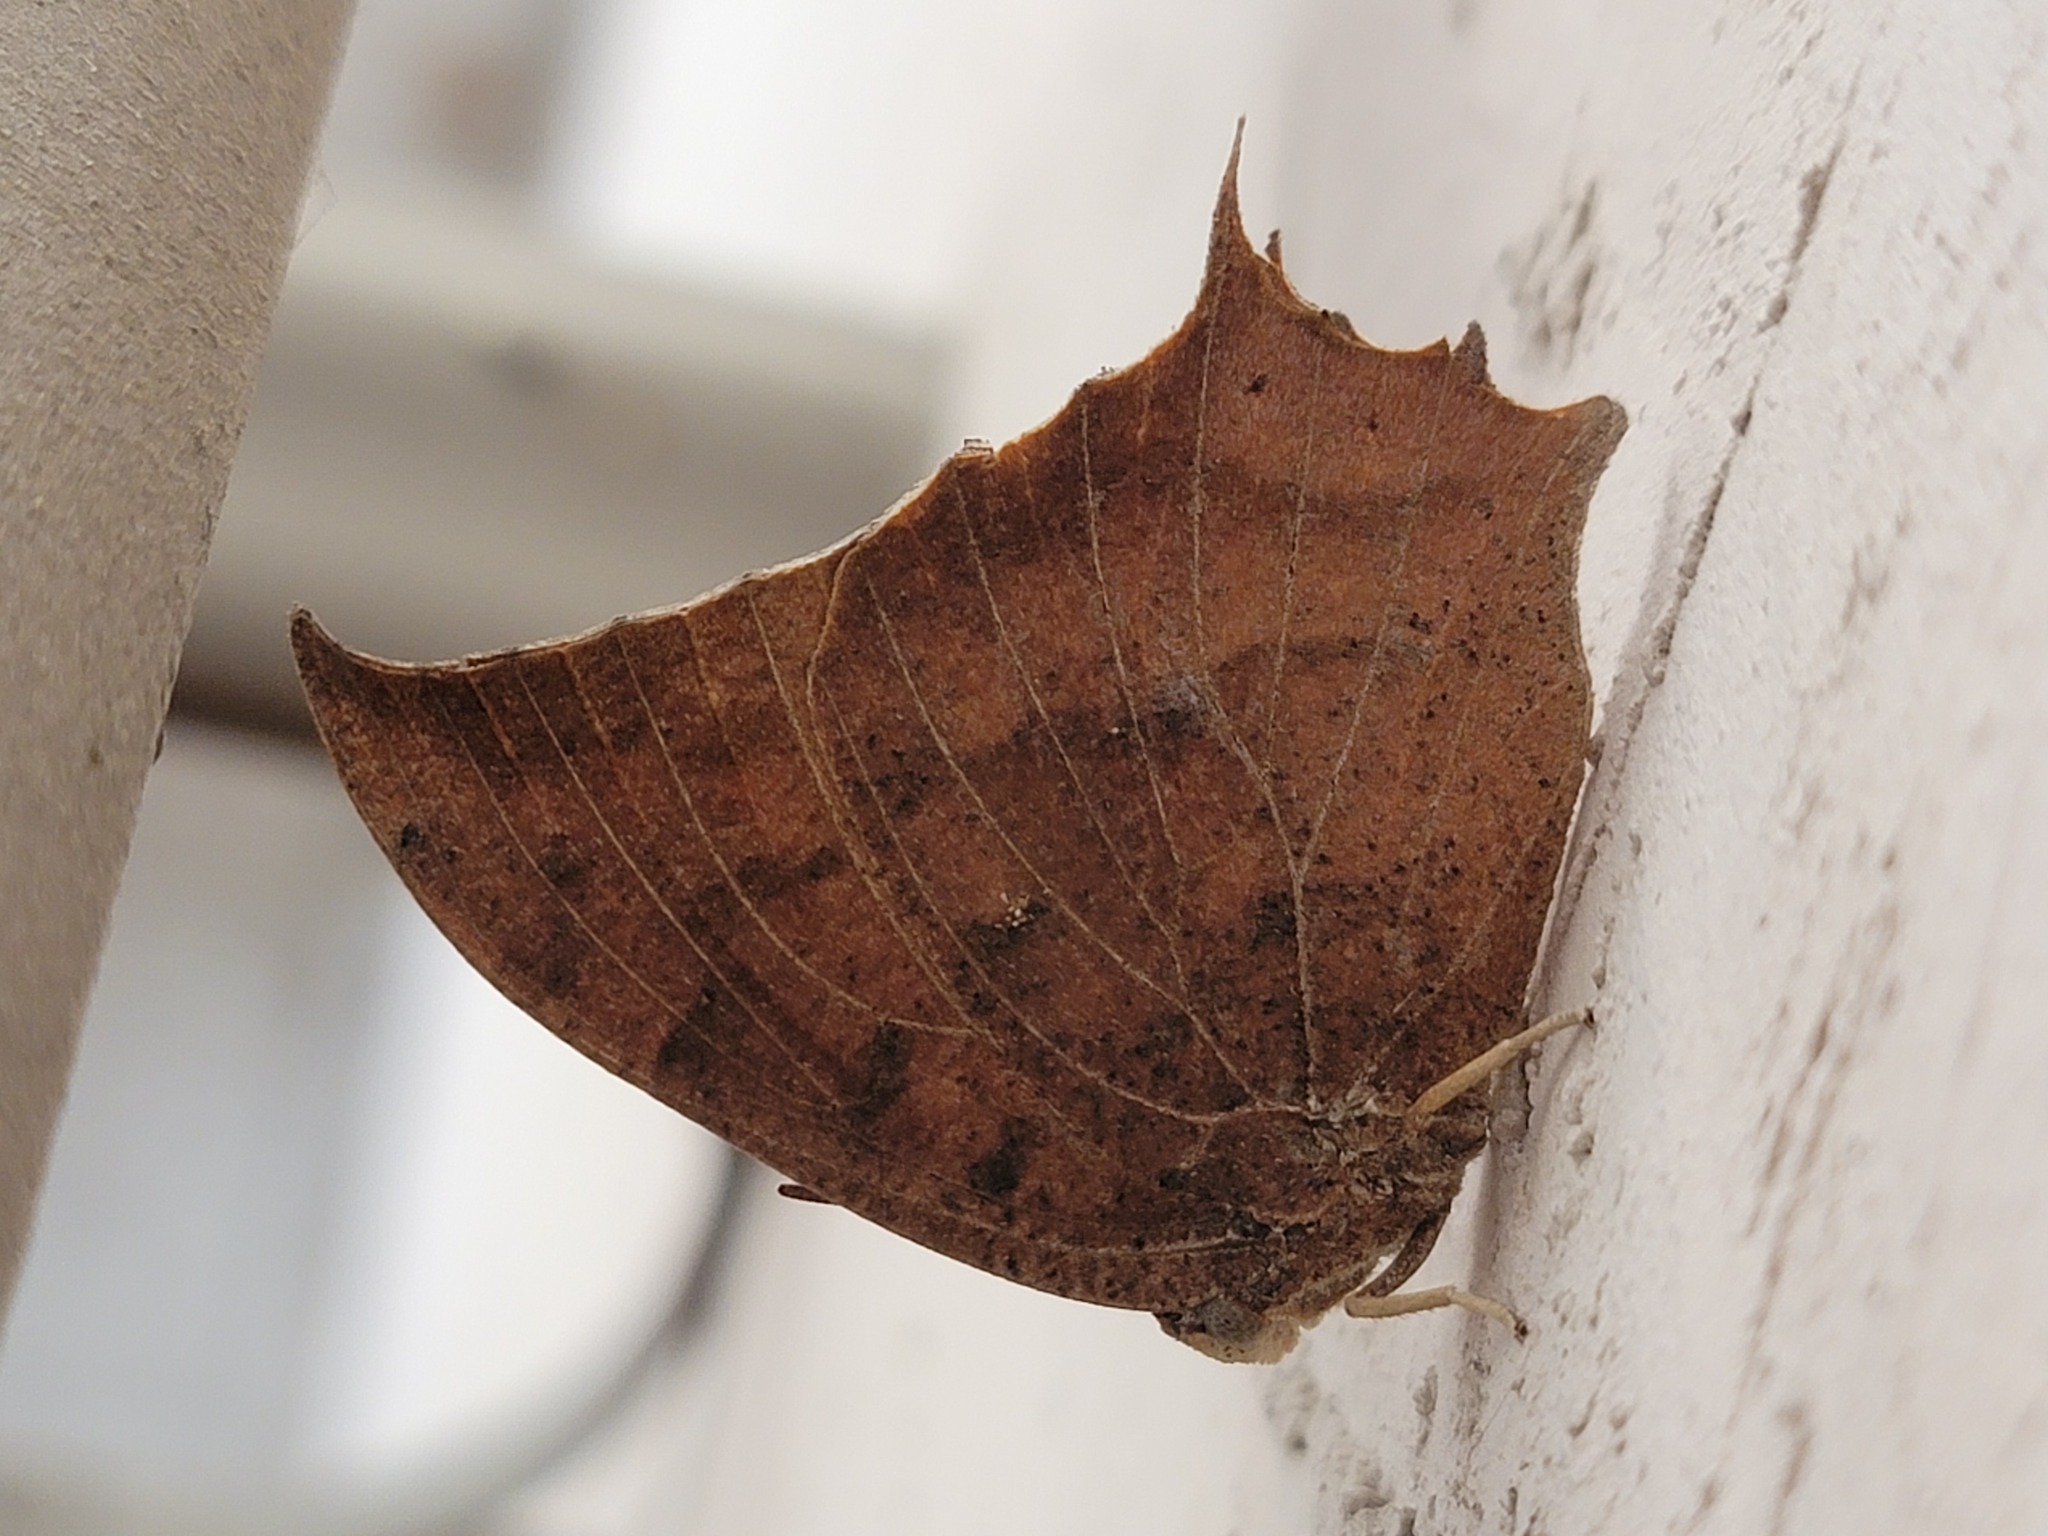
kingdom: Animalia
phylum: Arthropoda
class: Insecta
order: Lepidoptera
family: Nymphalidae
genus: Anaea
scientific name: Anaea aidea
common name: Tropical leafwing
